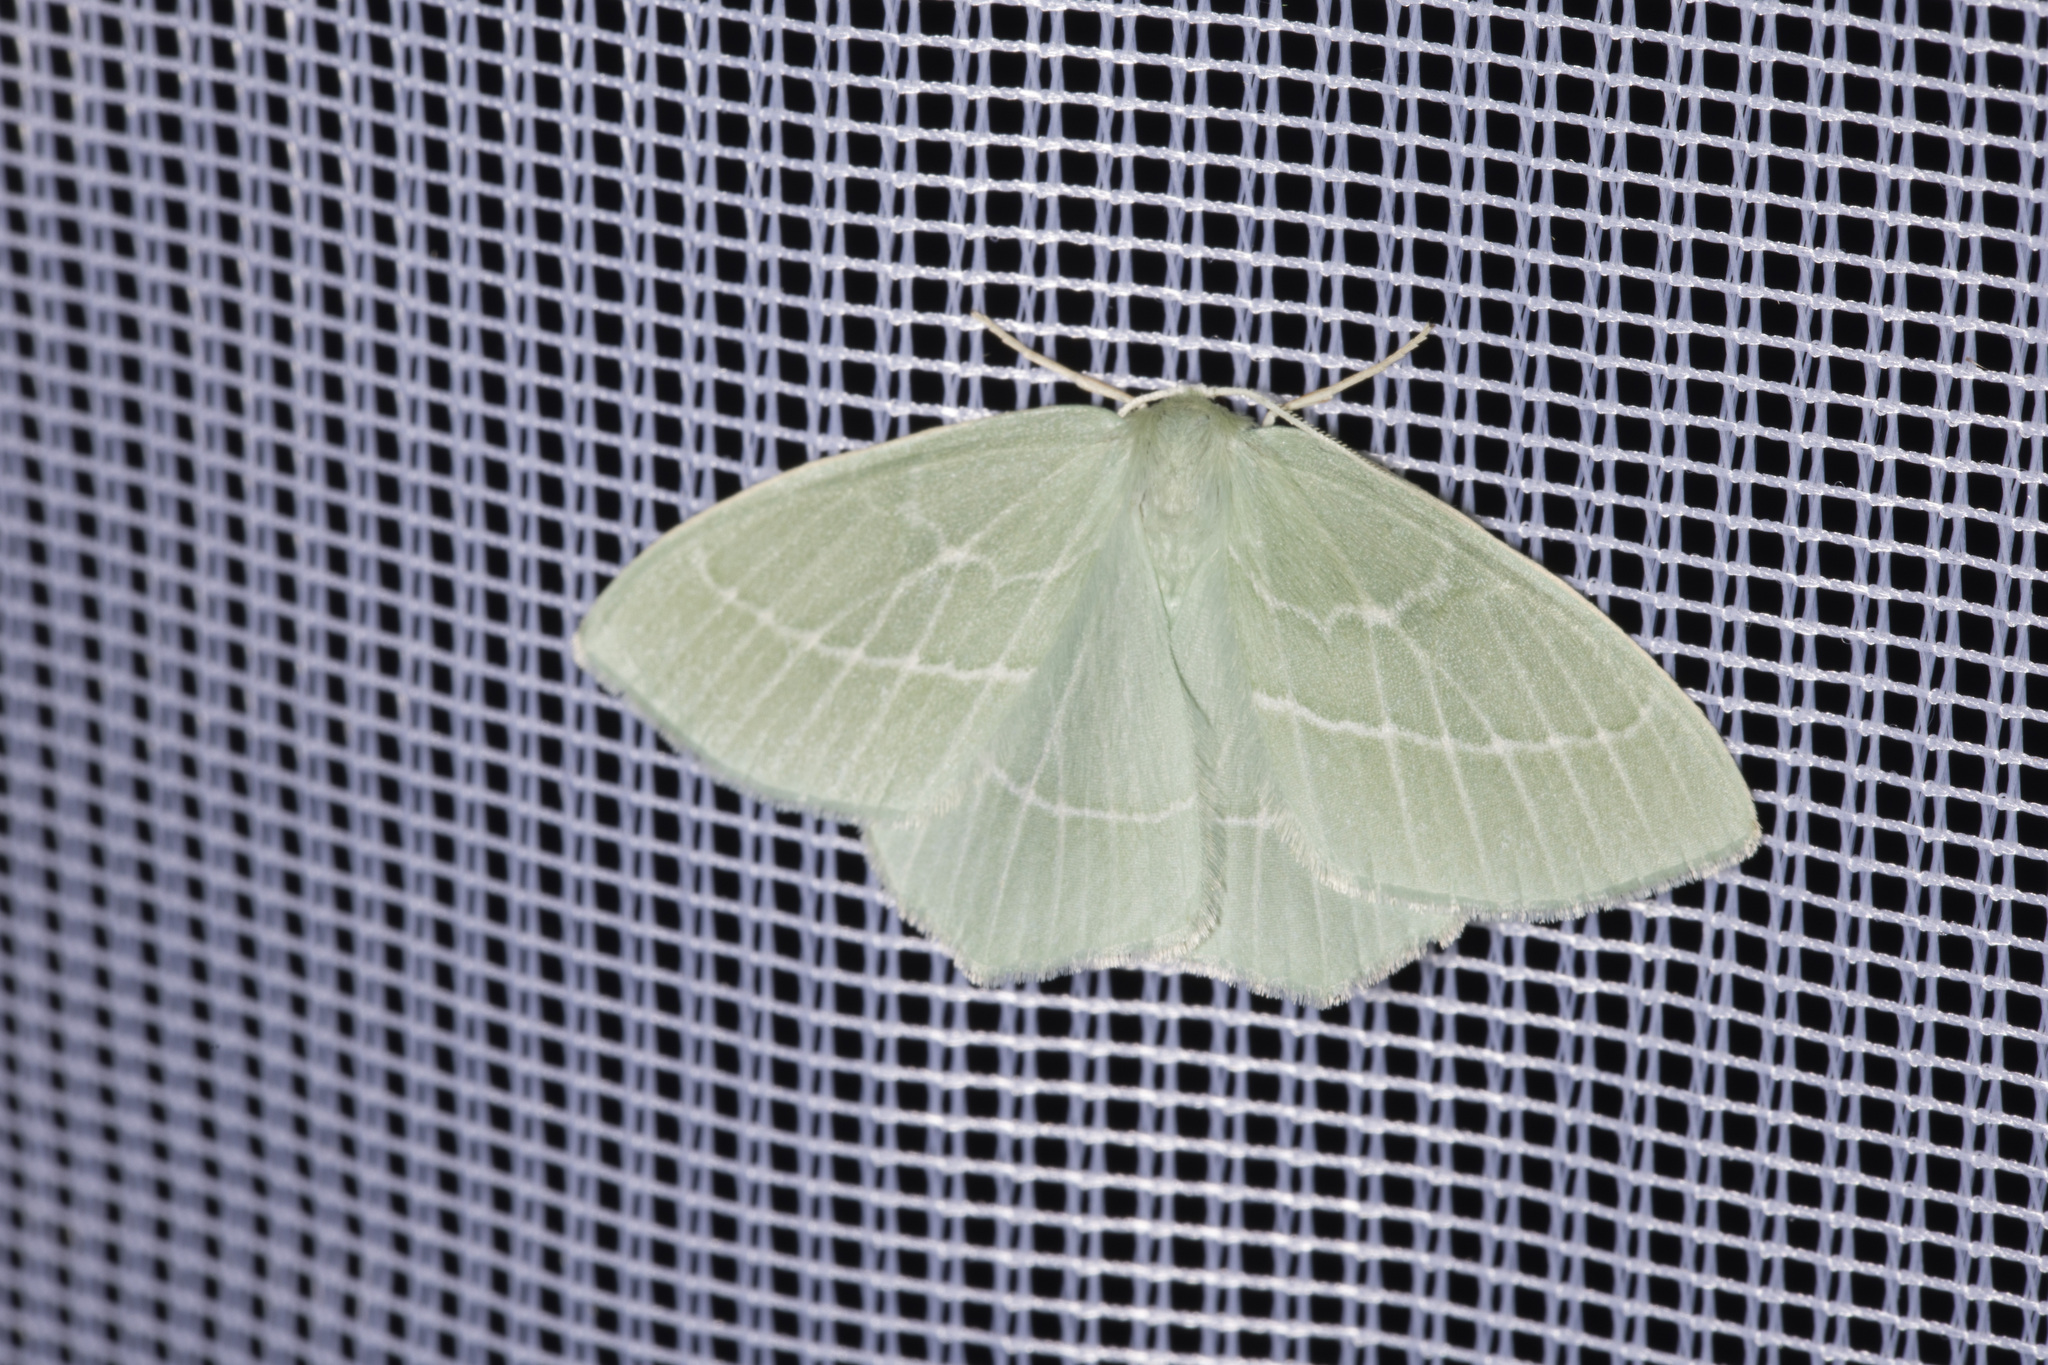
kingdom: Animalia
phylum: Arthropoda
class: Insecta
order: Lepidoptera
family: Geometridae
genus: Hemistola
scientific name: Hemistola chrysoprasaria
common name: Small emerald
